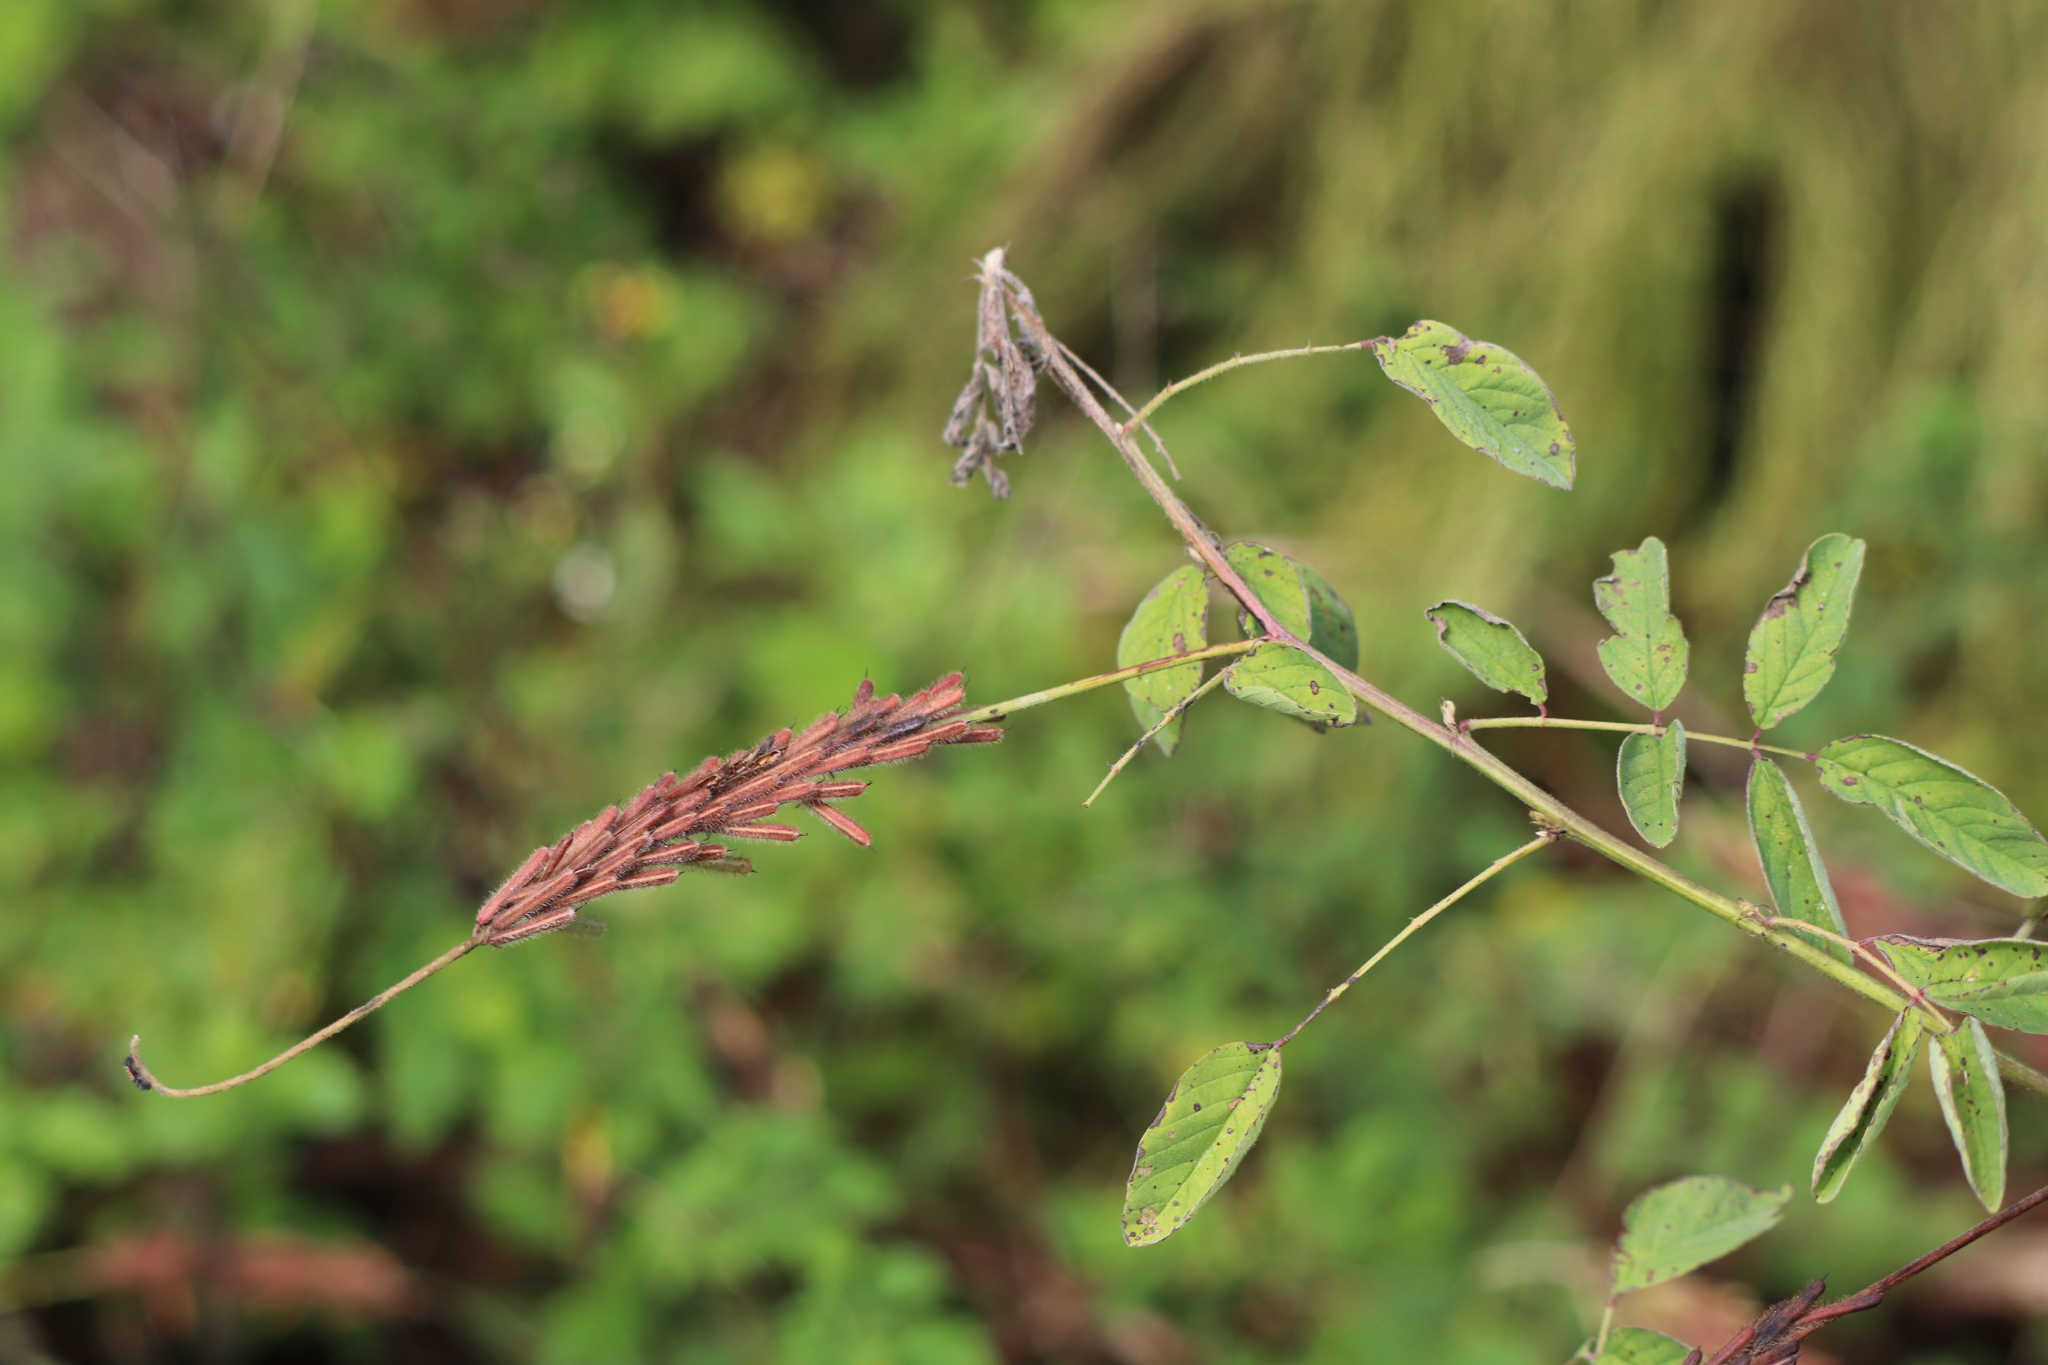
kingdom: Plantae
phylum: Tracheophyta
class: Magnoliopsida
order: Fabales
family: Fabaceae
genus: Indigofera
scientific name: Indigofera hirsuta
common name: Hairy indigo
